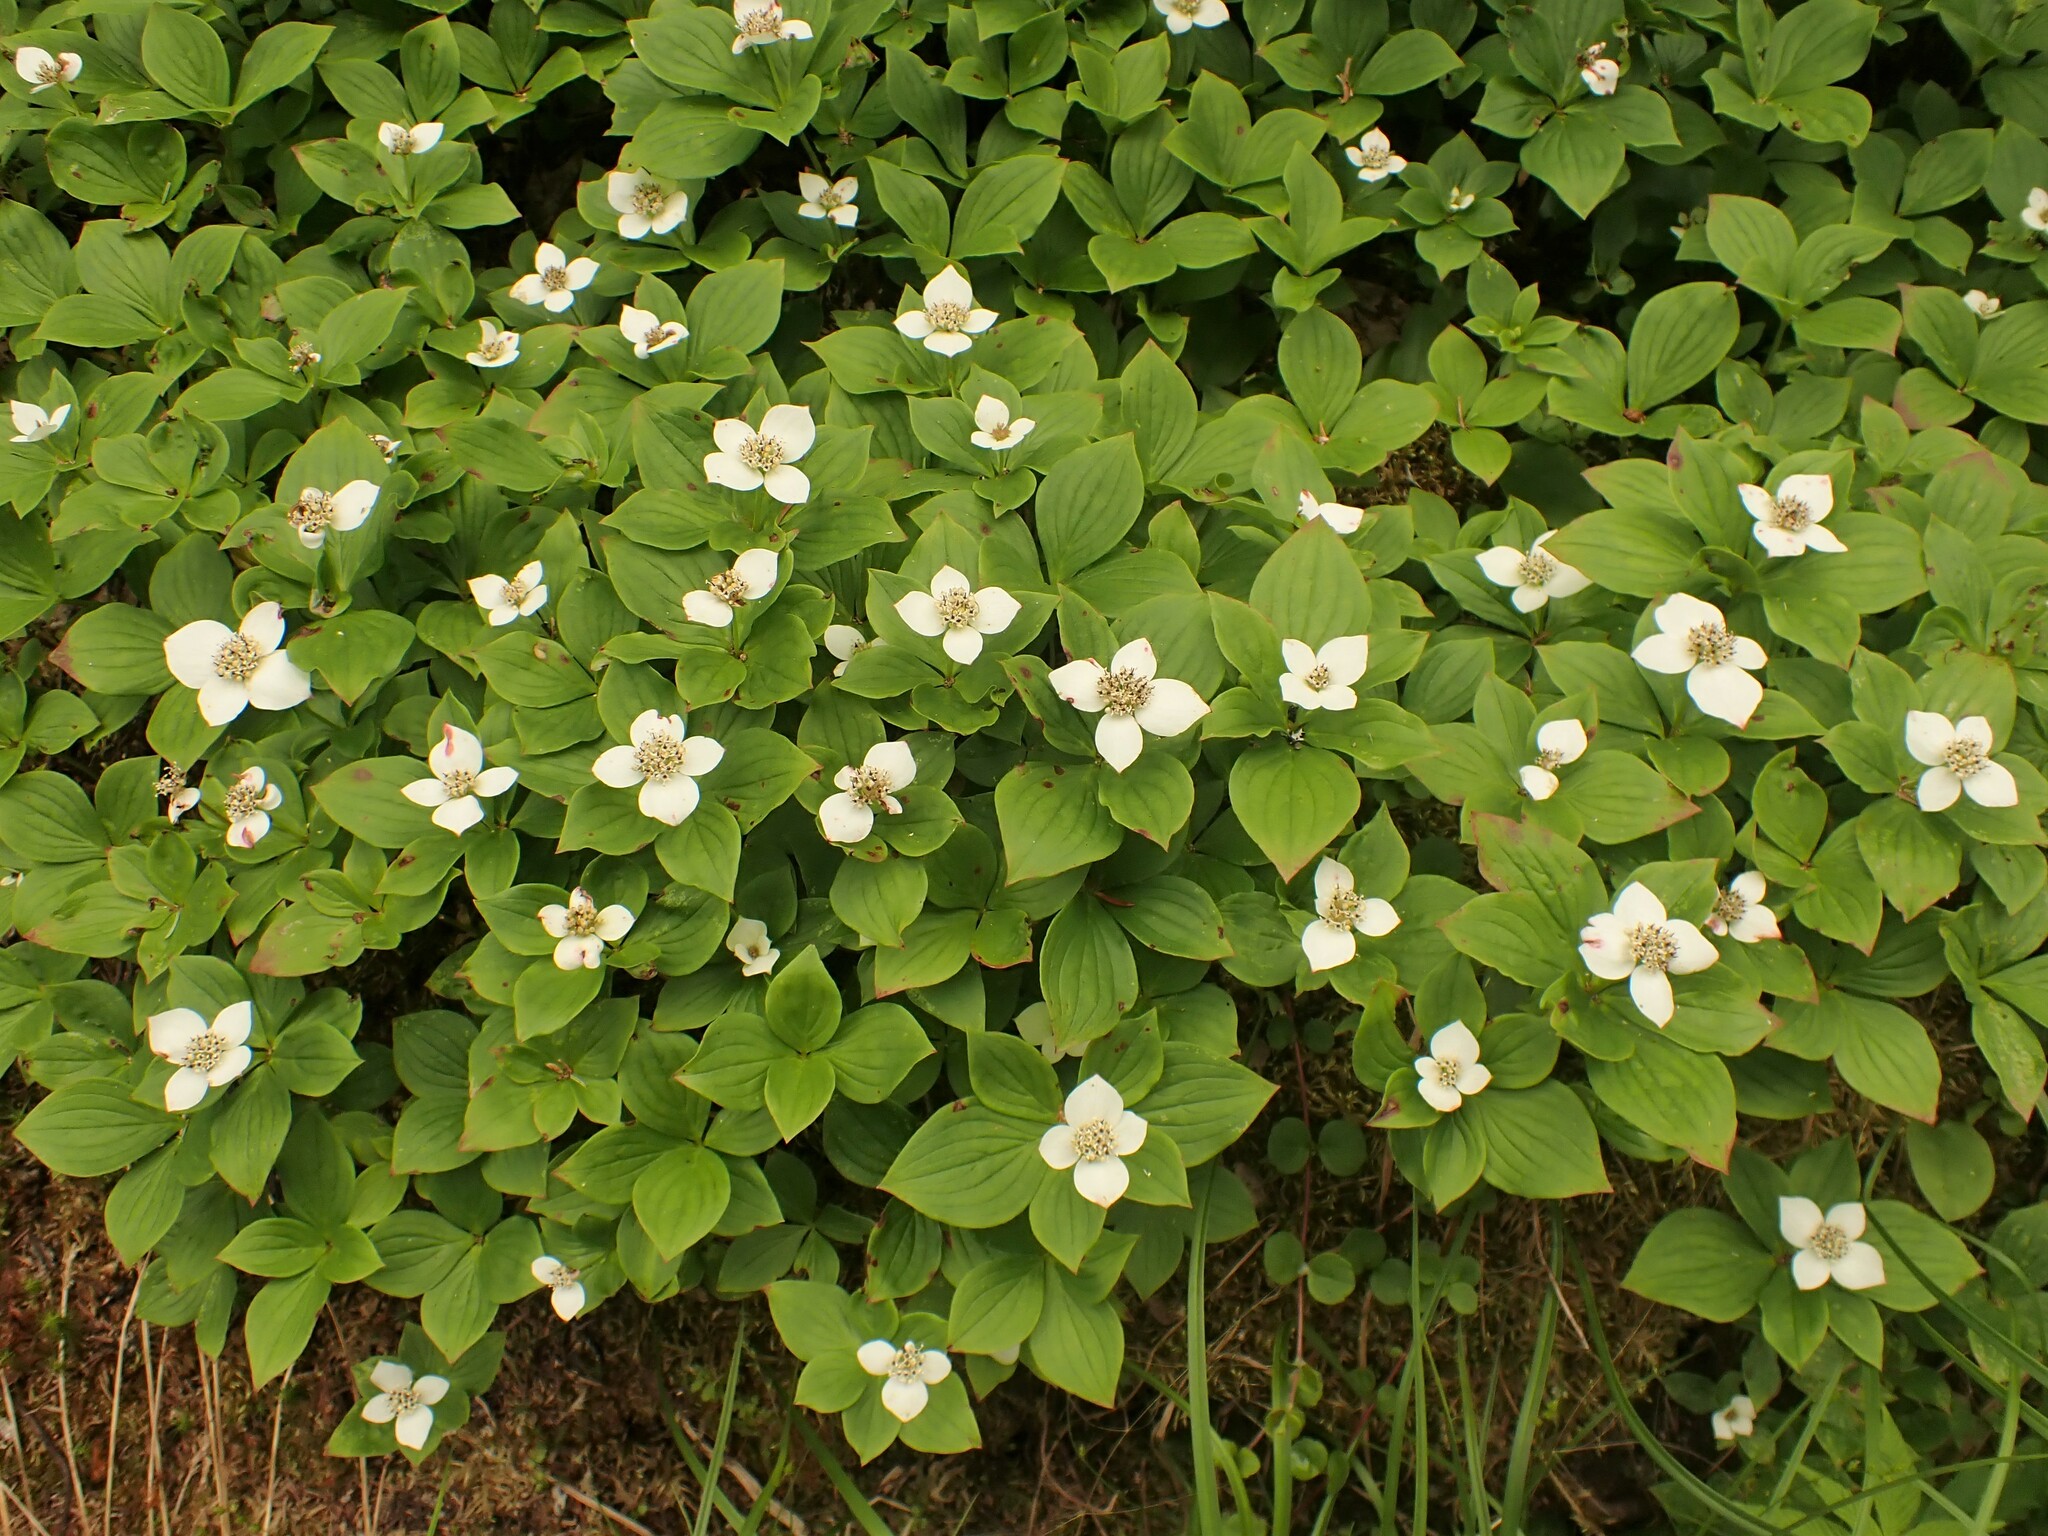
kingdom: Plantae
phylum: Tracheophyta
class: Magnoliopsida
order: Cornales
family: Cornaceae
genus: Cornus
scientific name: Cornus canadensis
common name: Creeping dogwood
